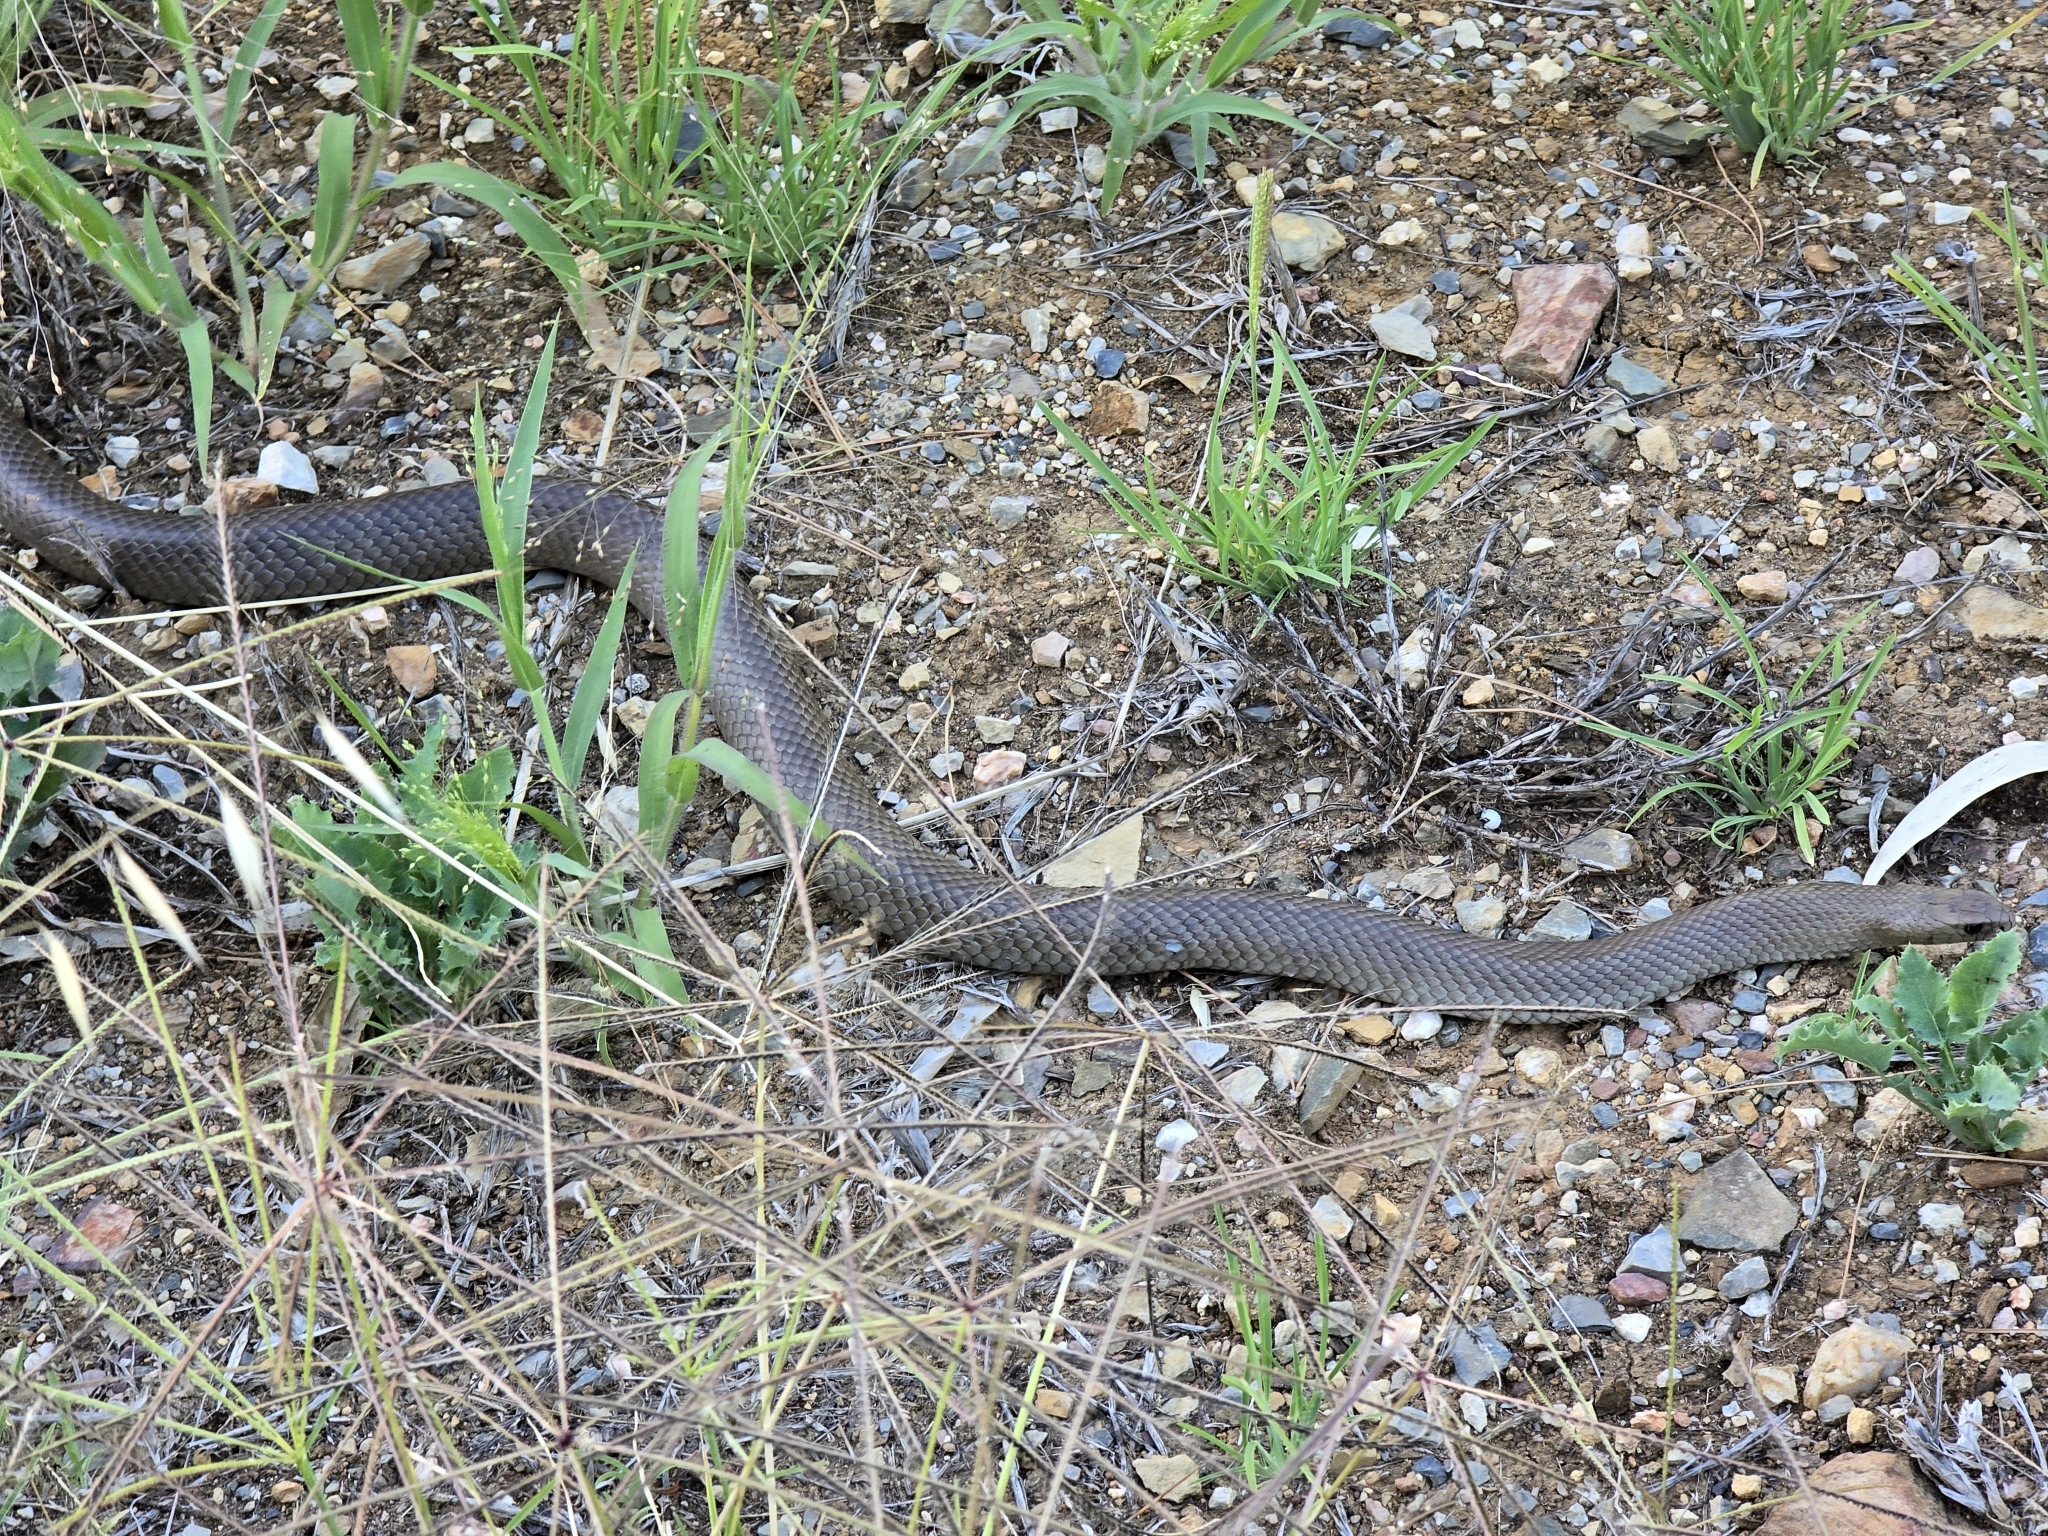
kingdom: Animalia
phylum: Chordata
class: Squamata
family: Elapidae
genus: Pseudonaja
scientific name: Pseudonaja textilis
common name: Eastern brown snake
